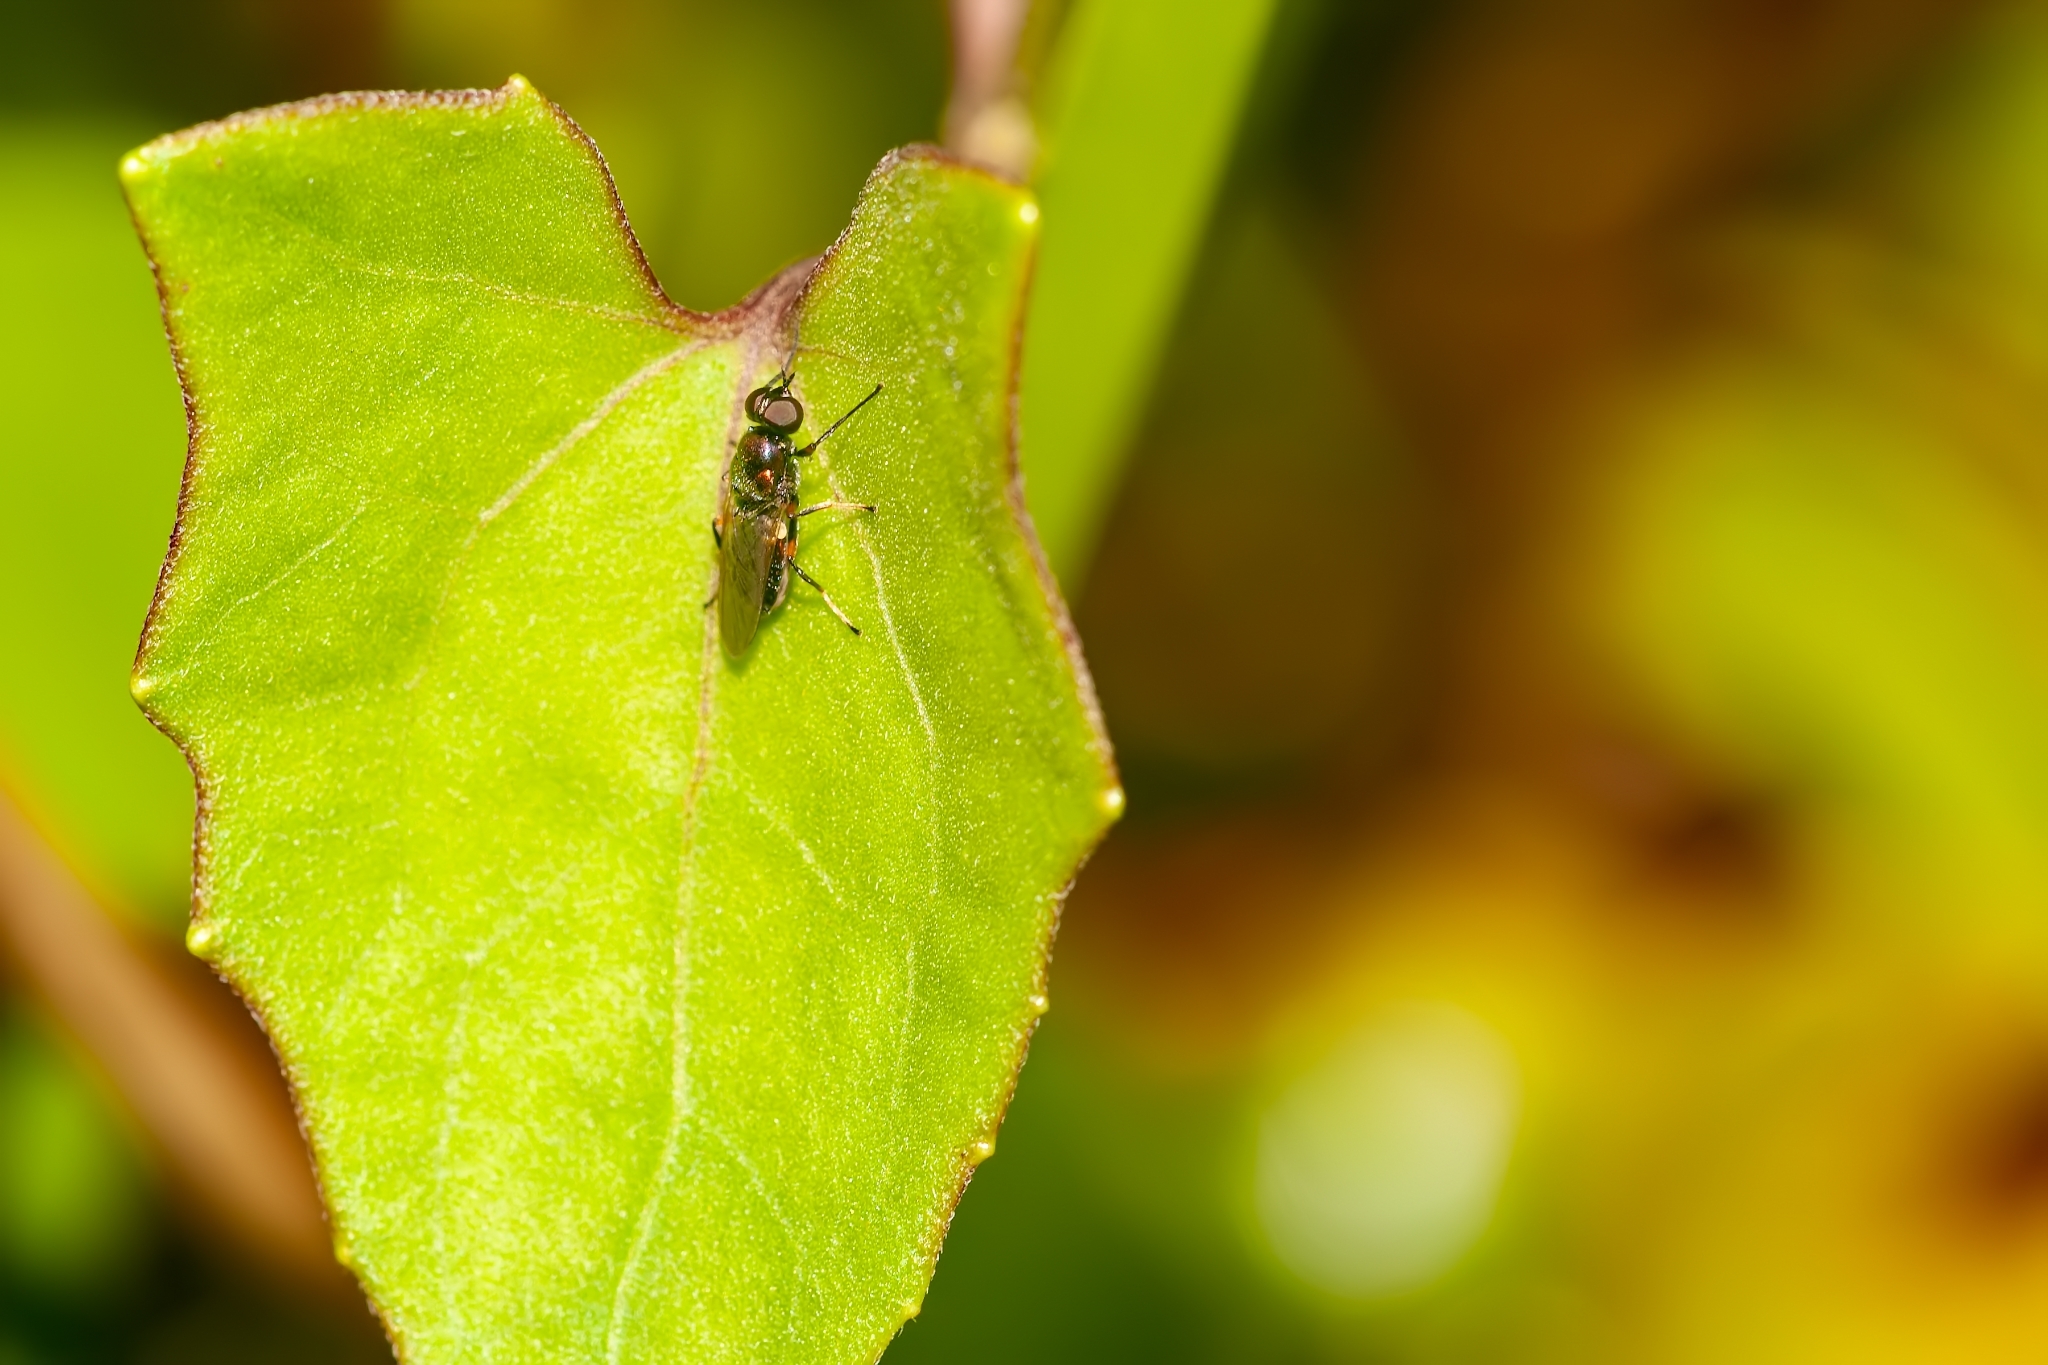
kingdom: Animalia
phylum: Arthropoda
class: Insecta
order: Diptera
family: Stratiomyidae
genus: Nothomyia
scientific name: Nothomyia calopus
